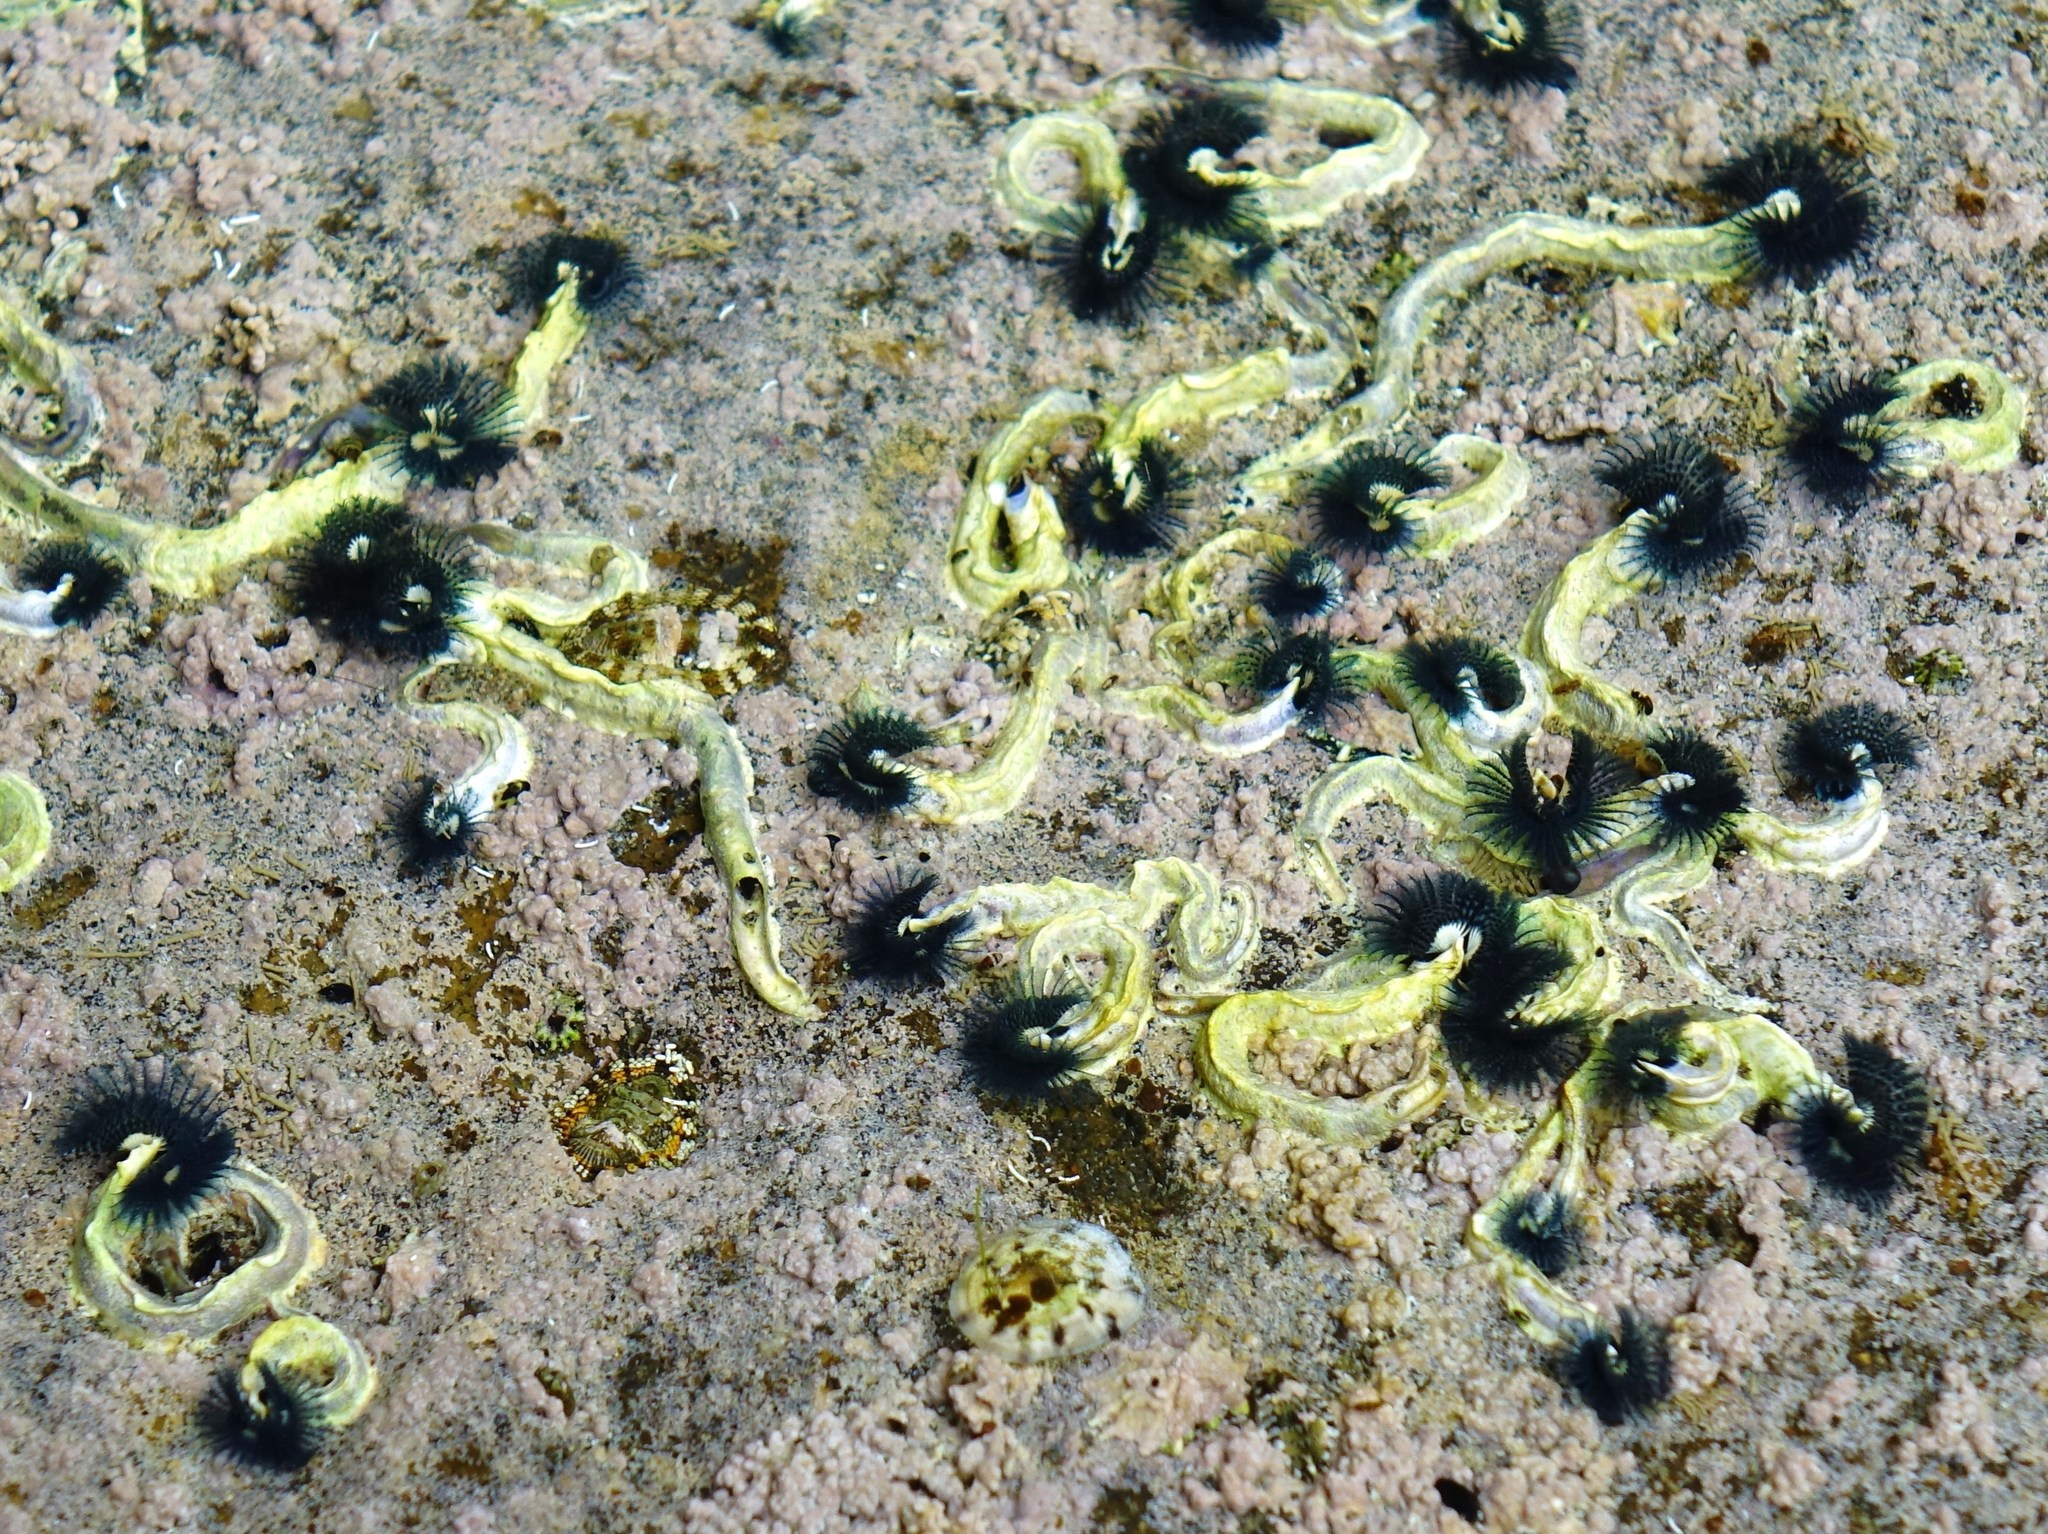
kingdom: Animalia
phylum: Annelida
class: Polychaeta
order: Sabellida
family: Serpulidae
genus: Spirobranchus
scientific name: Spirobranchus cariniferus
